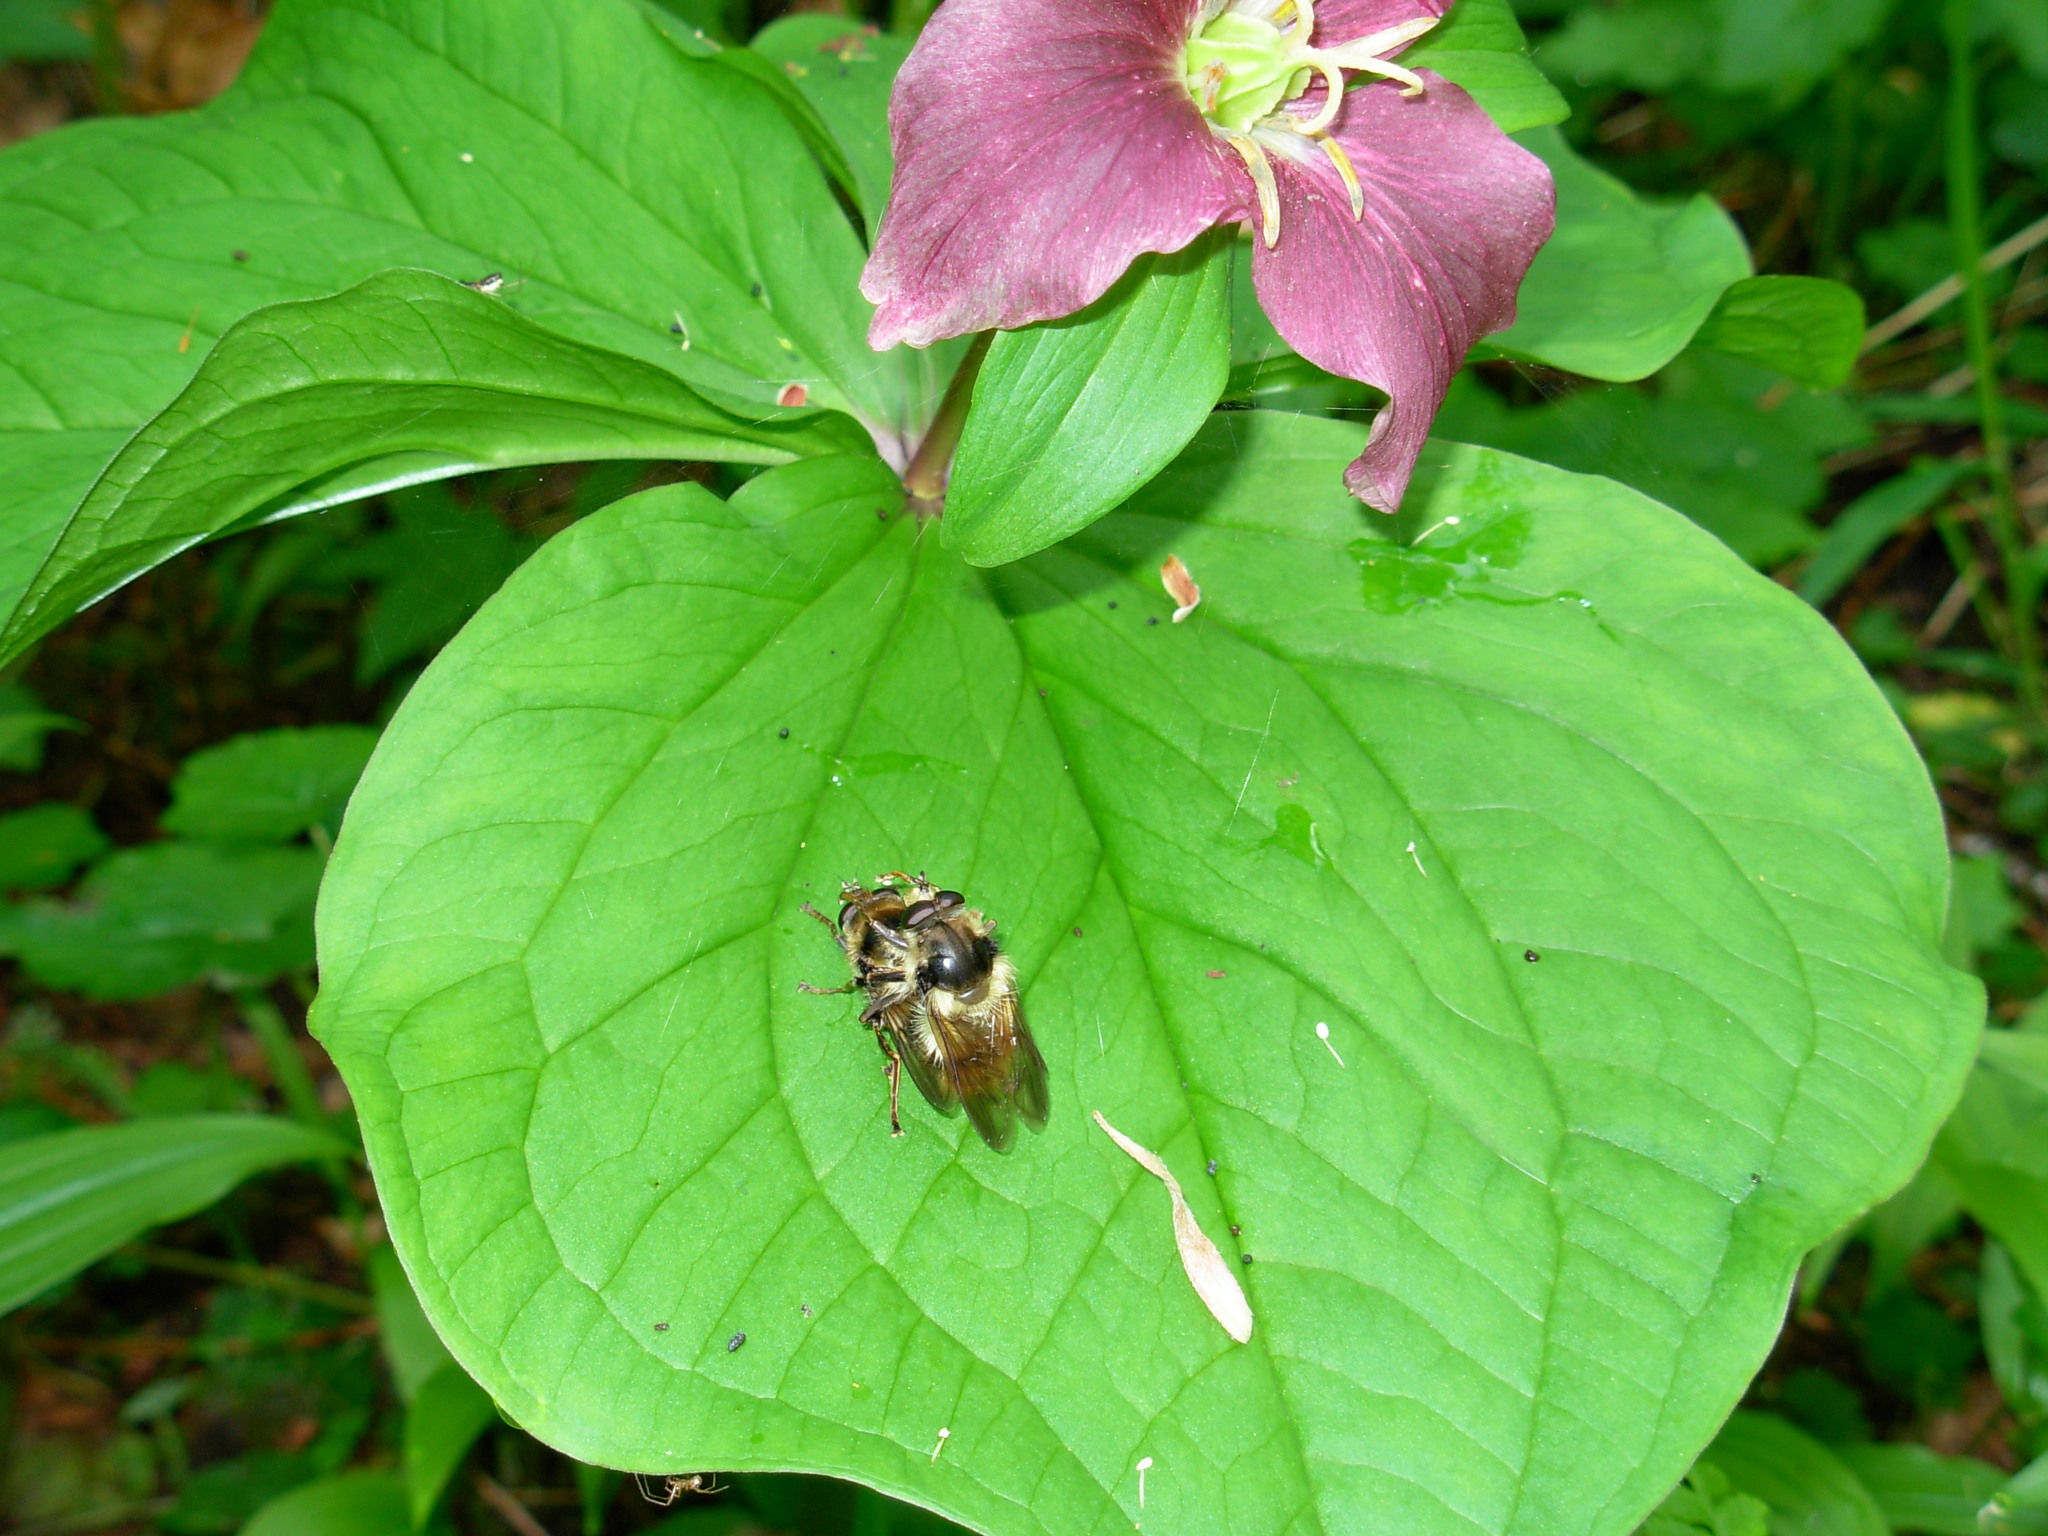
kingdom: Plantae
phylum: Tracheophyta
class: Liliopsida
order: Liliales
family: Melanthiaceae
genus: Trillium
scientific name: Trillium ovatum
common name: Pacific trillium
